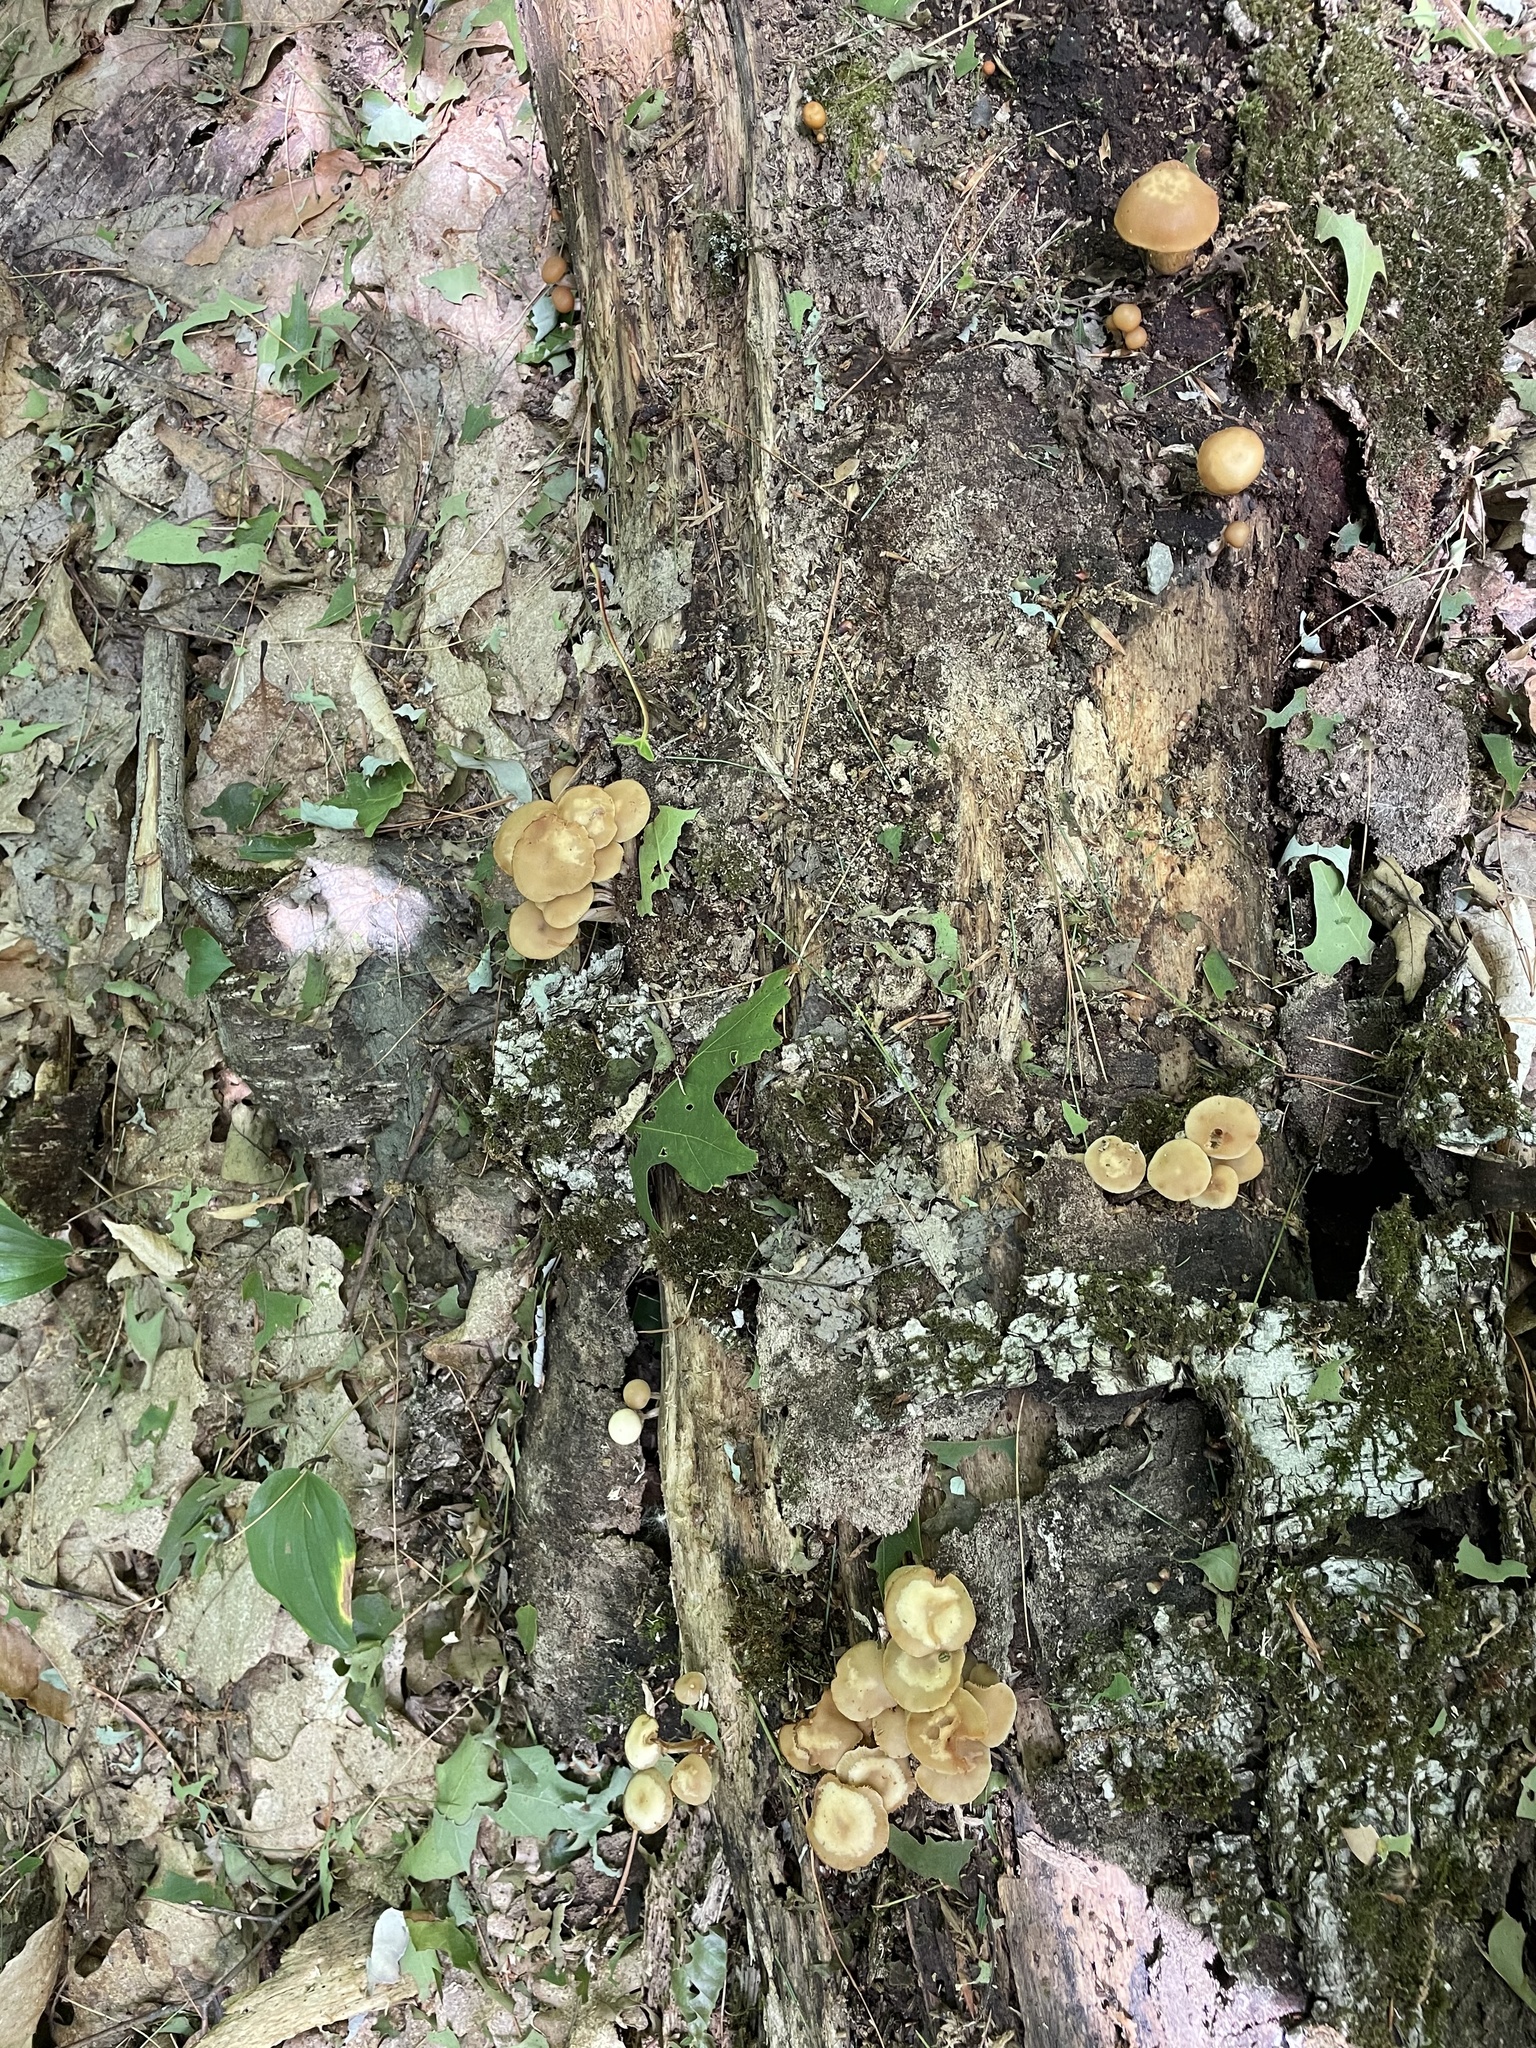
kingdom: Fungi
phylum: Basidiomycota
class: Agaricomycetes
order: Agaricales
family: Strophariaceae
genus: Kuehneromyces
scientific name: Kuehneromyces marginellus
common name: Sheathed woodtuft
